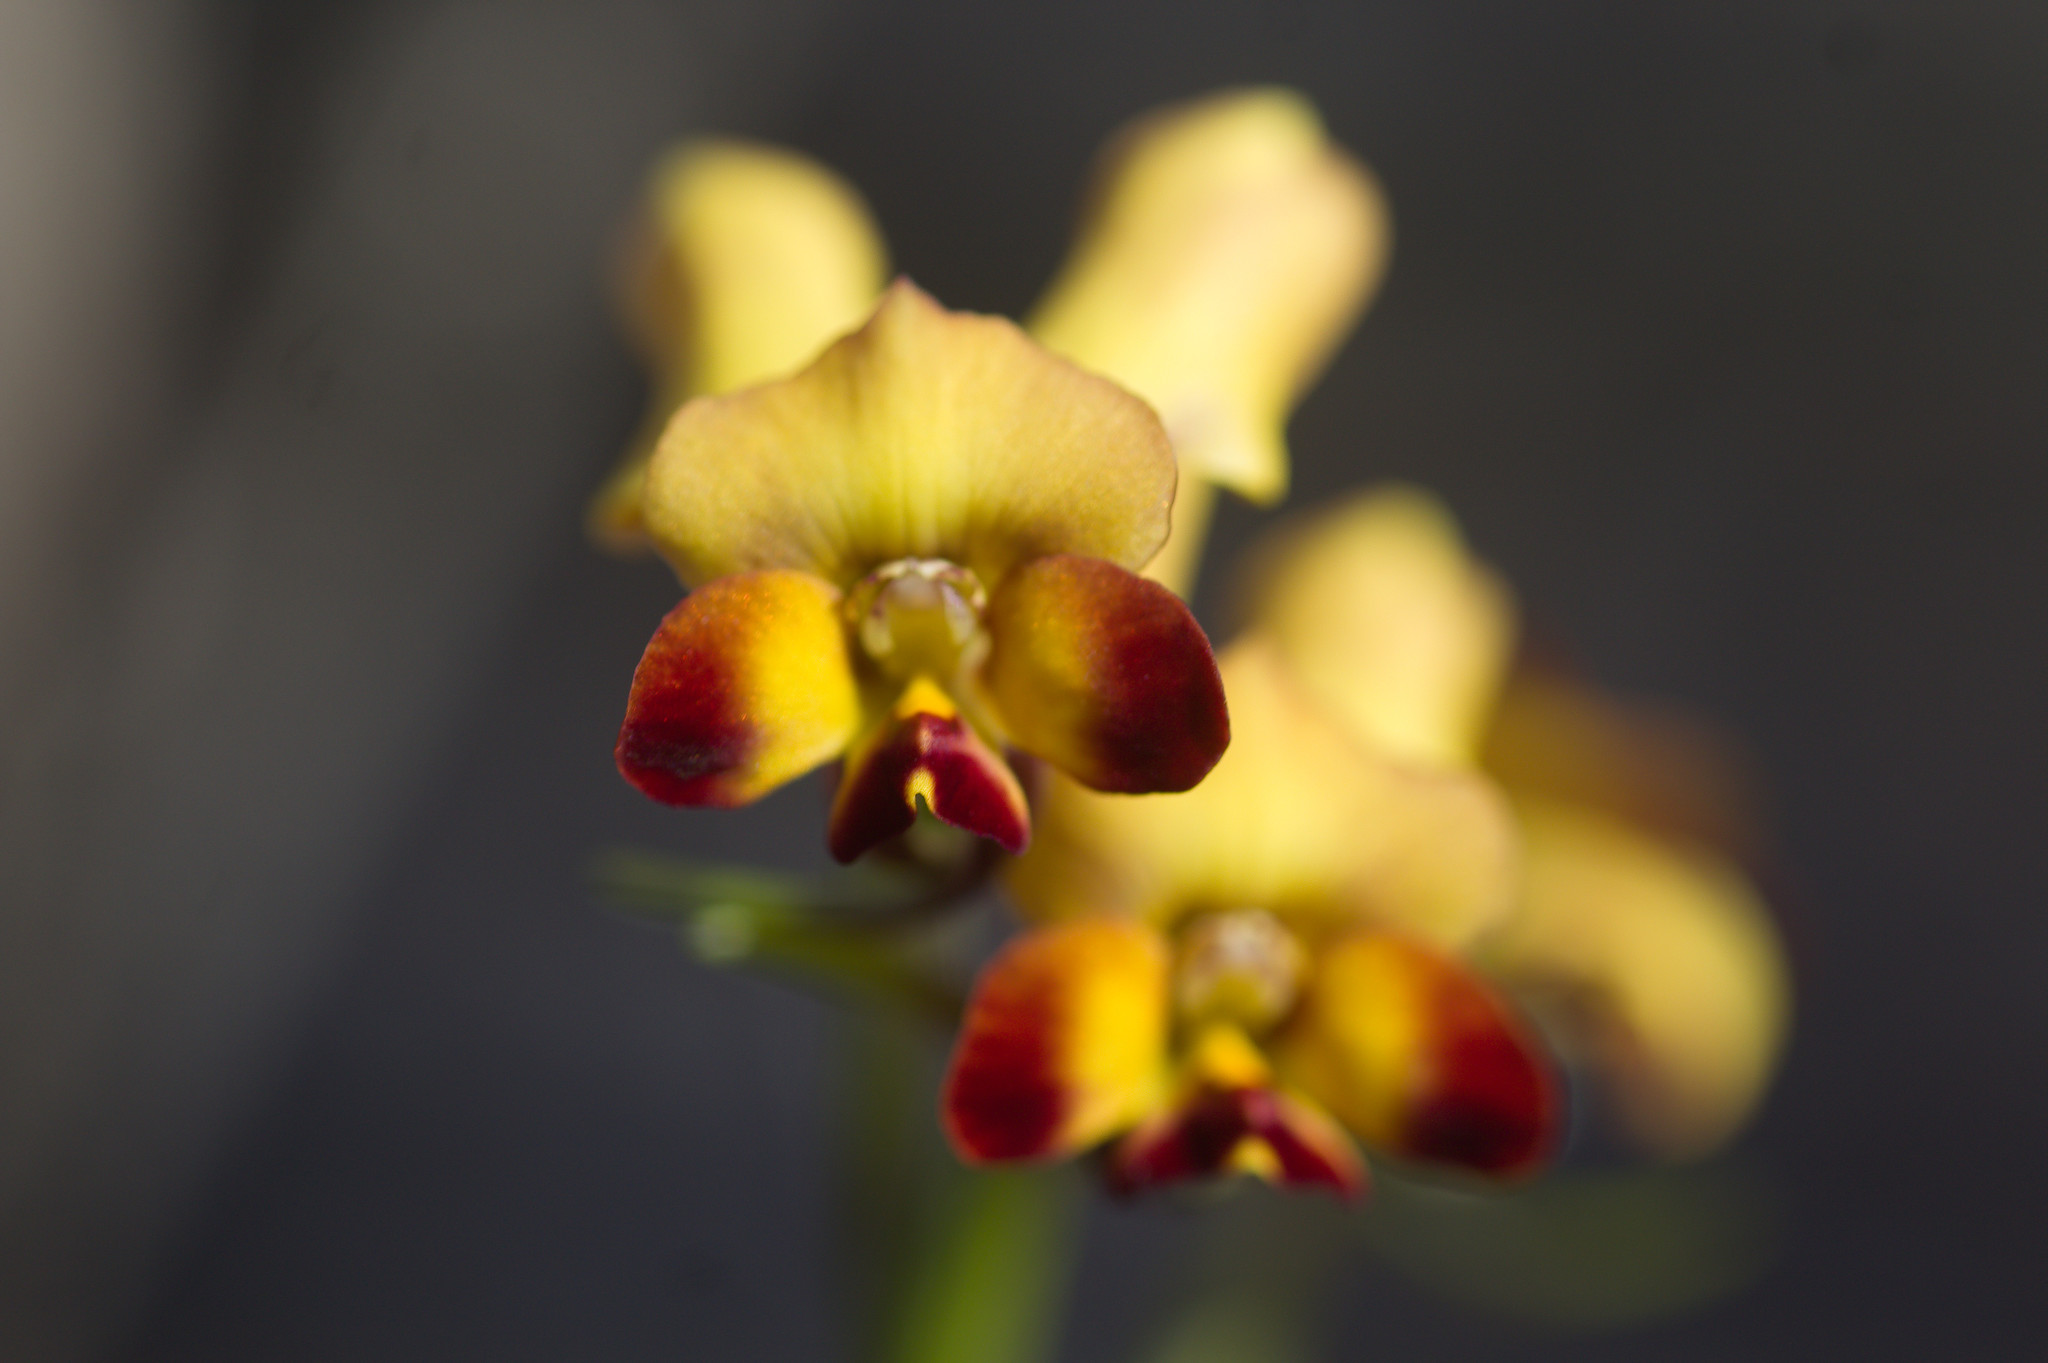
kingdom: Plantae
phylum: Tracheophyta
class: Liliopsida
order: Asparagales
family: Orchidaceae
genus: Diuris
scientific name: Diuris porrifolia
